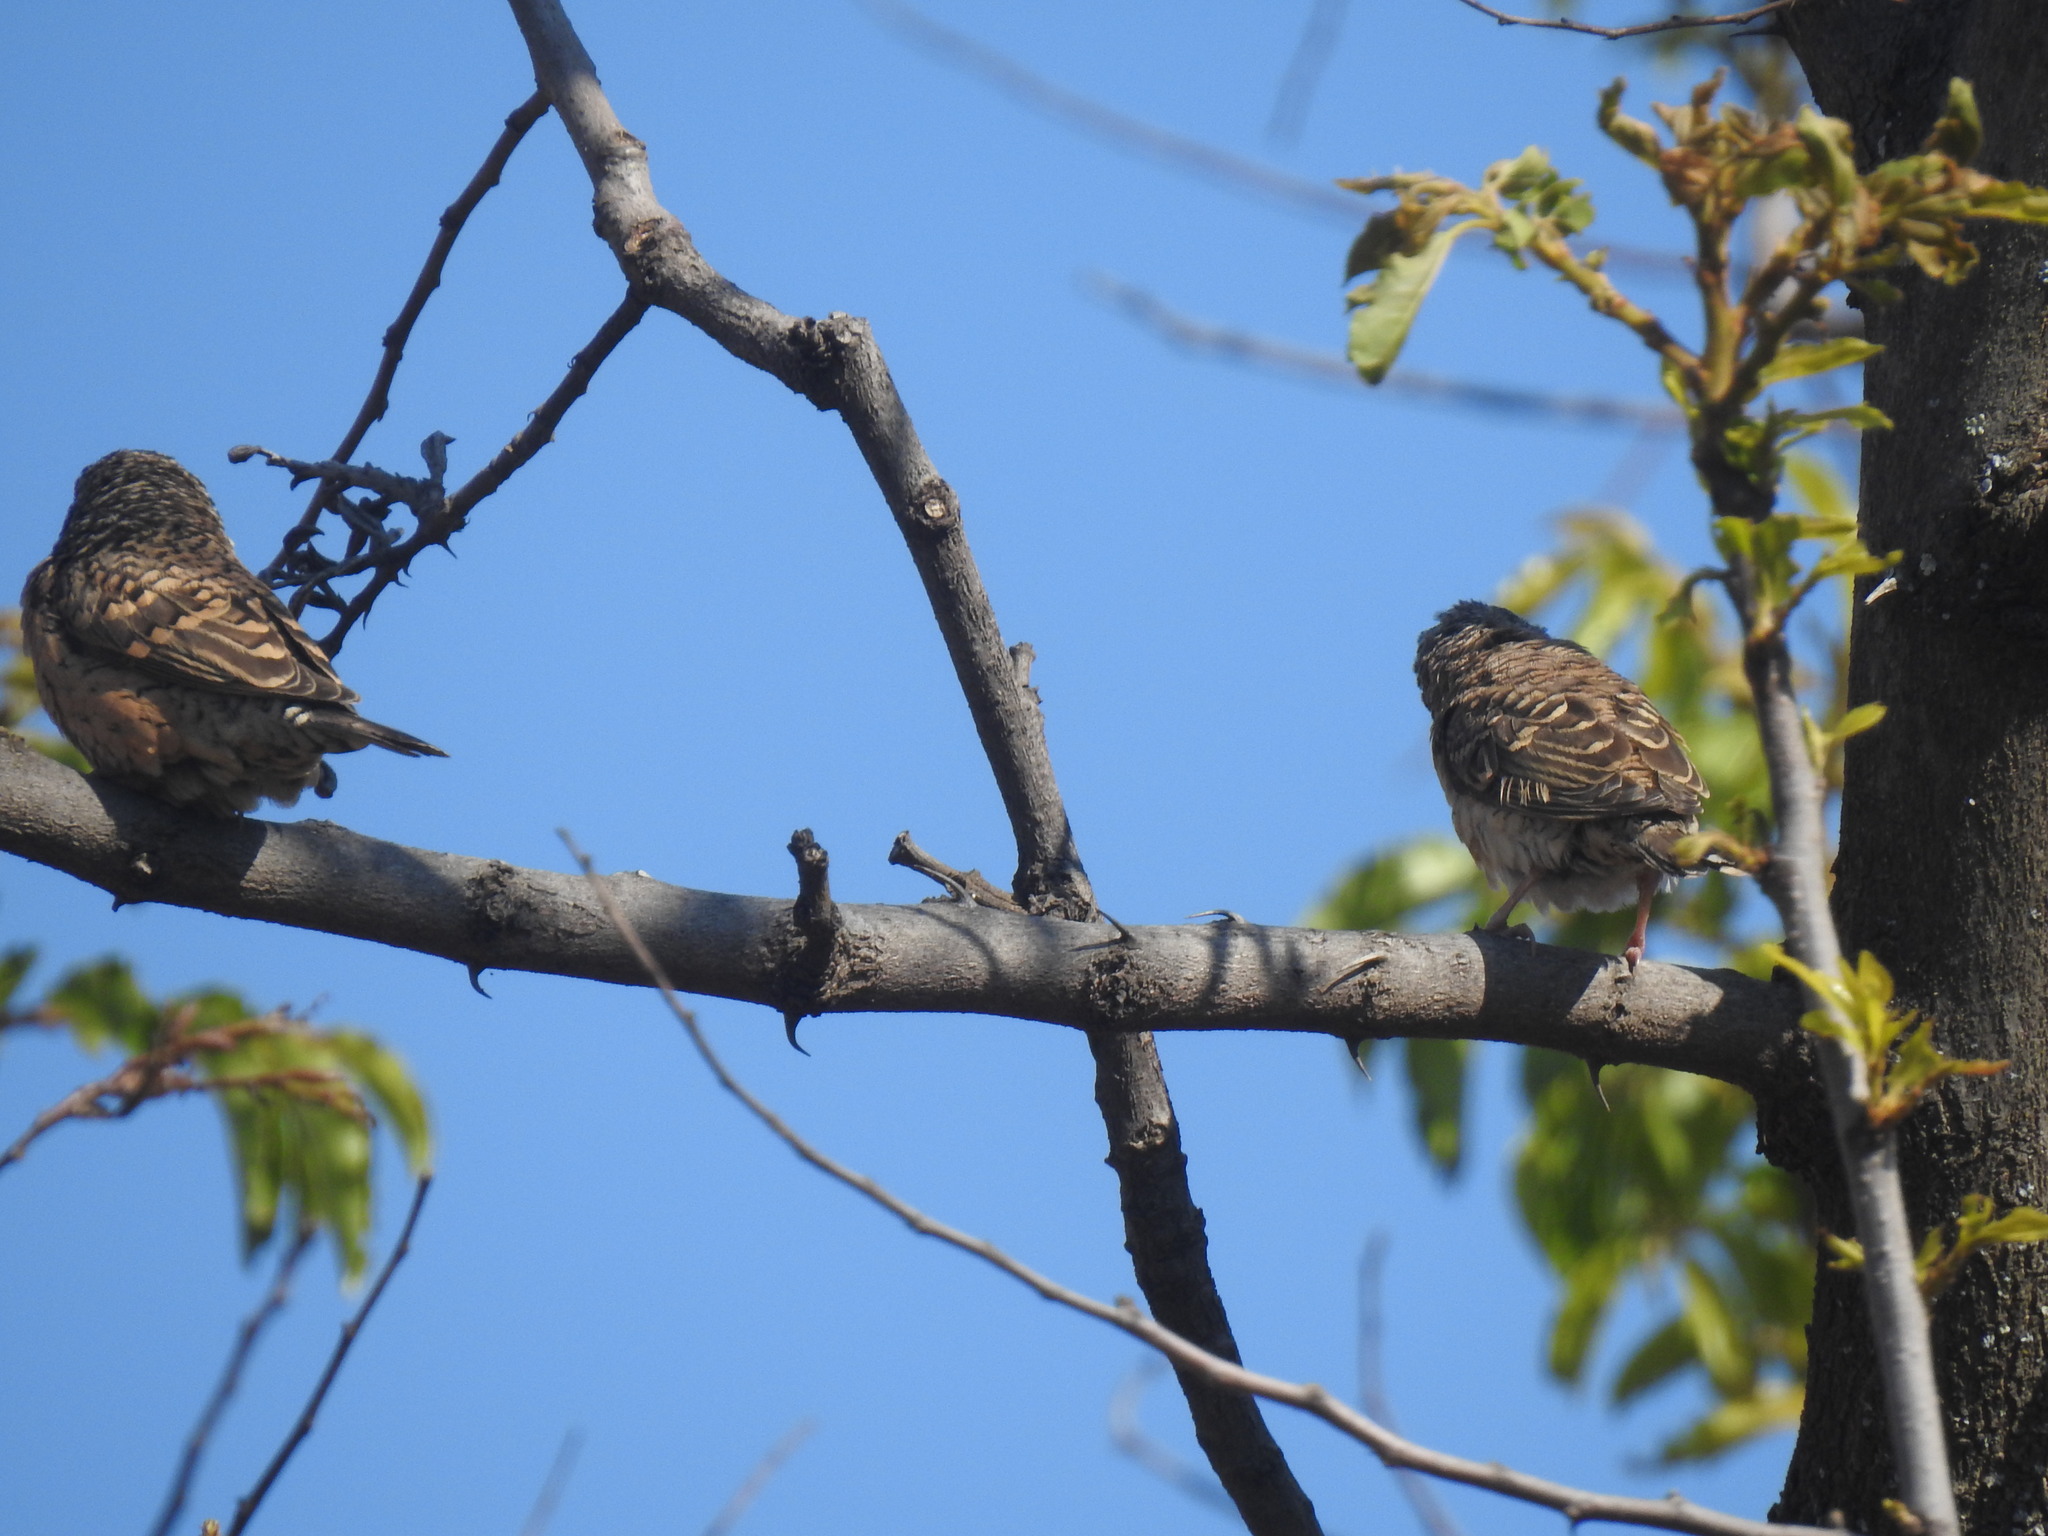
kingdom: Animalia
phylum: Chordata
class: Aves
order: Passeriformes
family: Estrildidae
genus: Amadina
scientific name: Amadina fasciata
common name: Cut-throat finch
